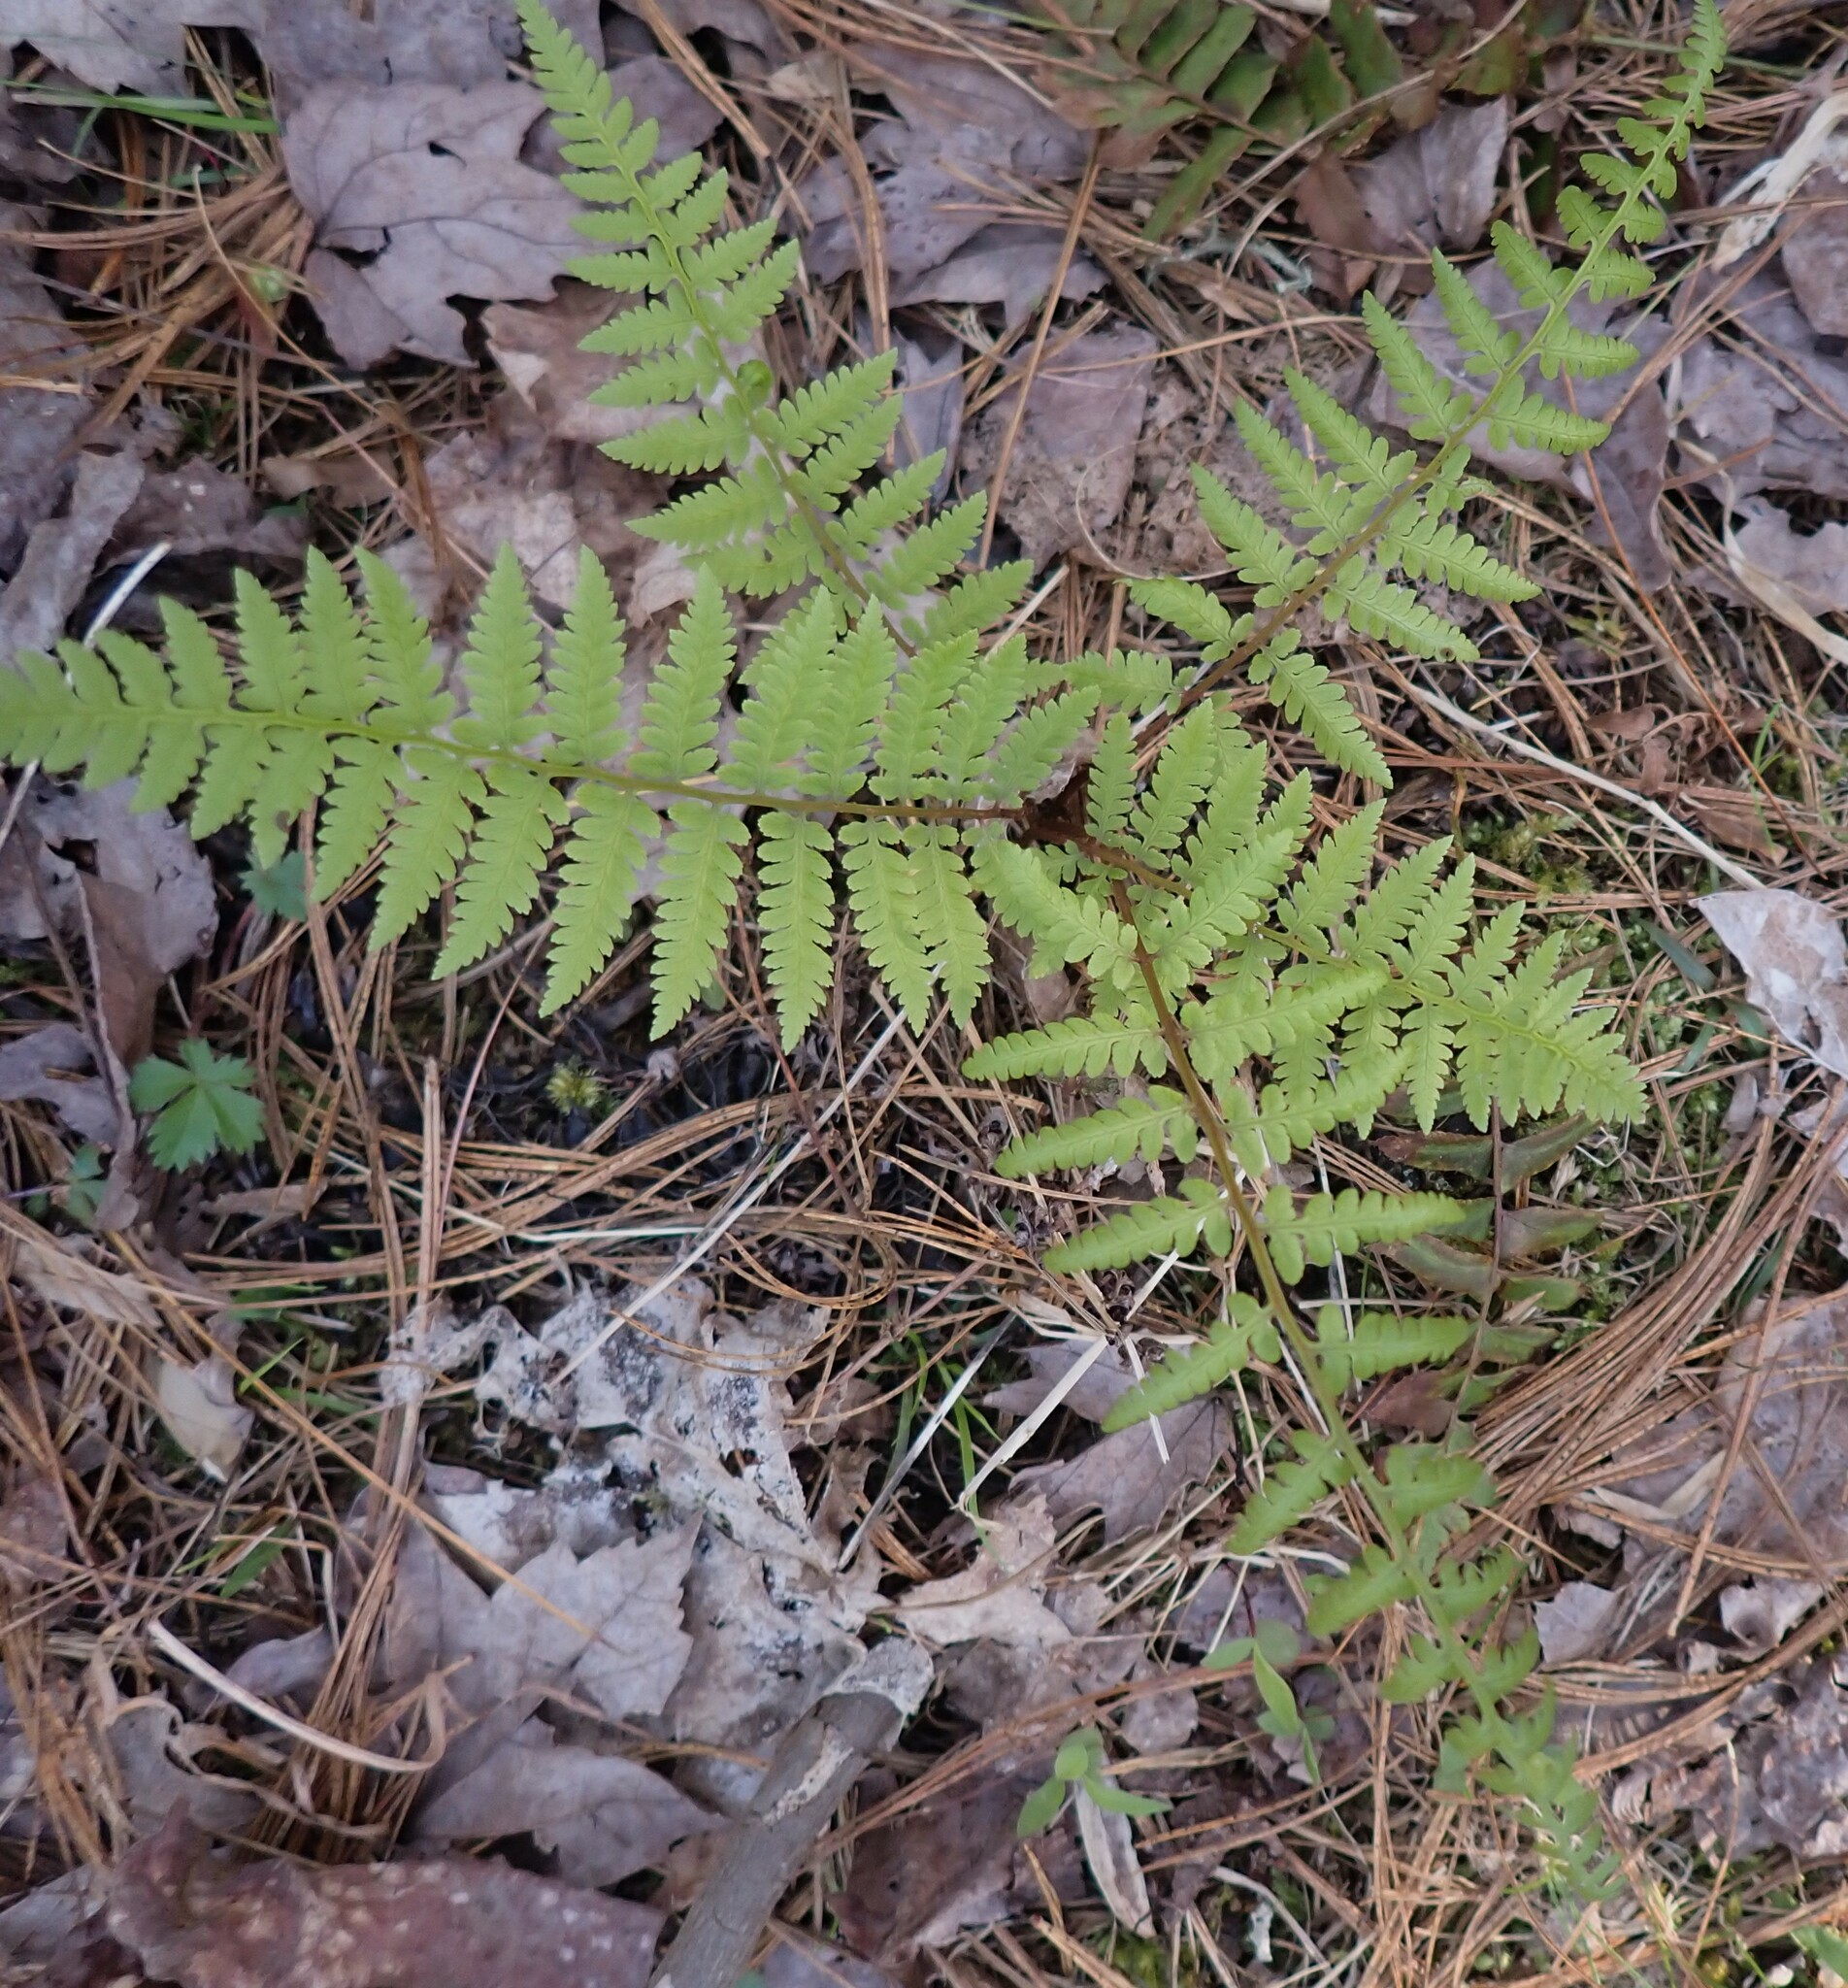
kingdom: Plantae
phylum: Tracheophyta
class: Polypodiopsida
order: Polypodiales
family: Athyriaceae
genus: Athyrium
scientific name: Athyrium asplenioides
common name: Southern lady fern
